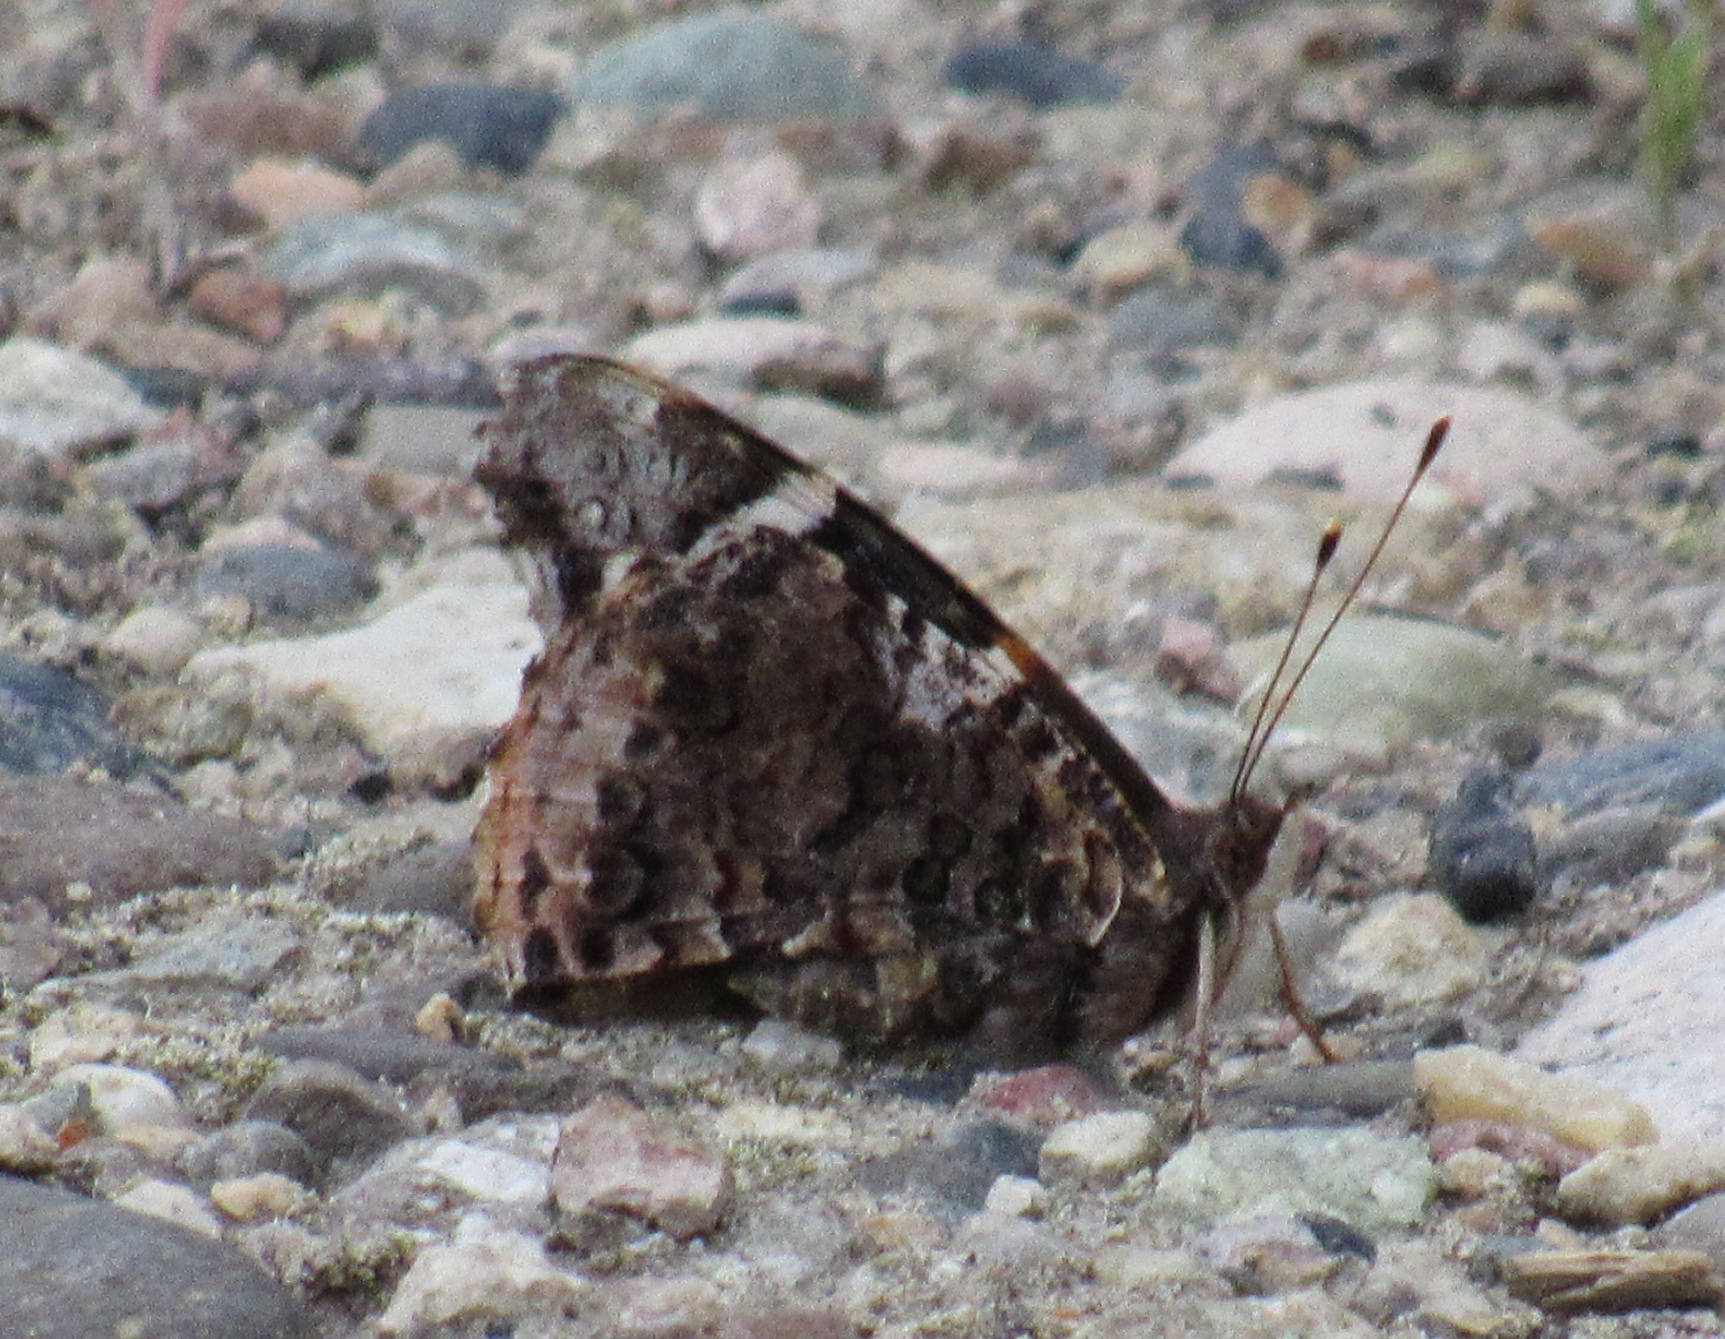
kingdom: Animalia
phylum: Arthropoda
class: Insecta
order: Lepidoptera
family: Nymphalidae
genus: Vanessa
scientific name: Vanessa atalanta
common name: Red admiral
